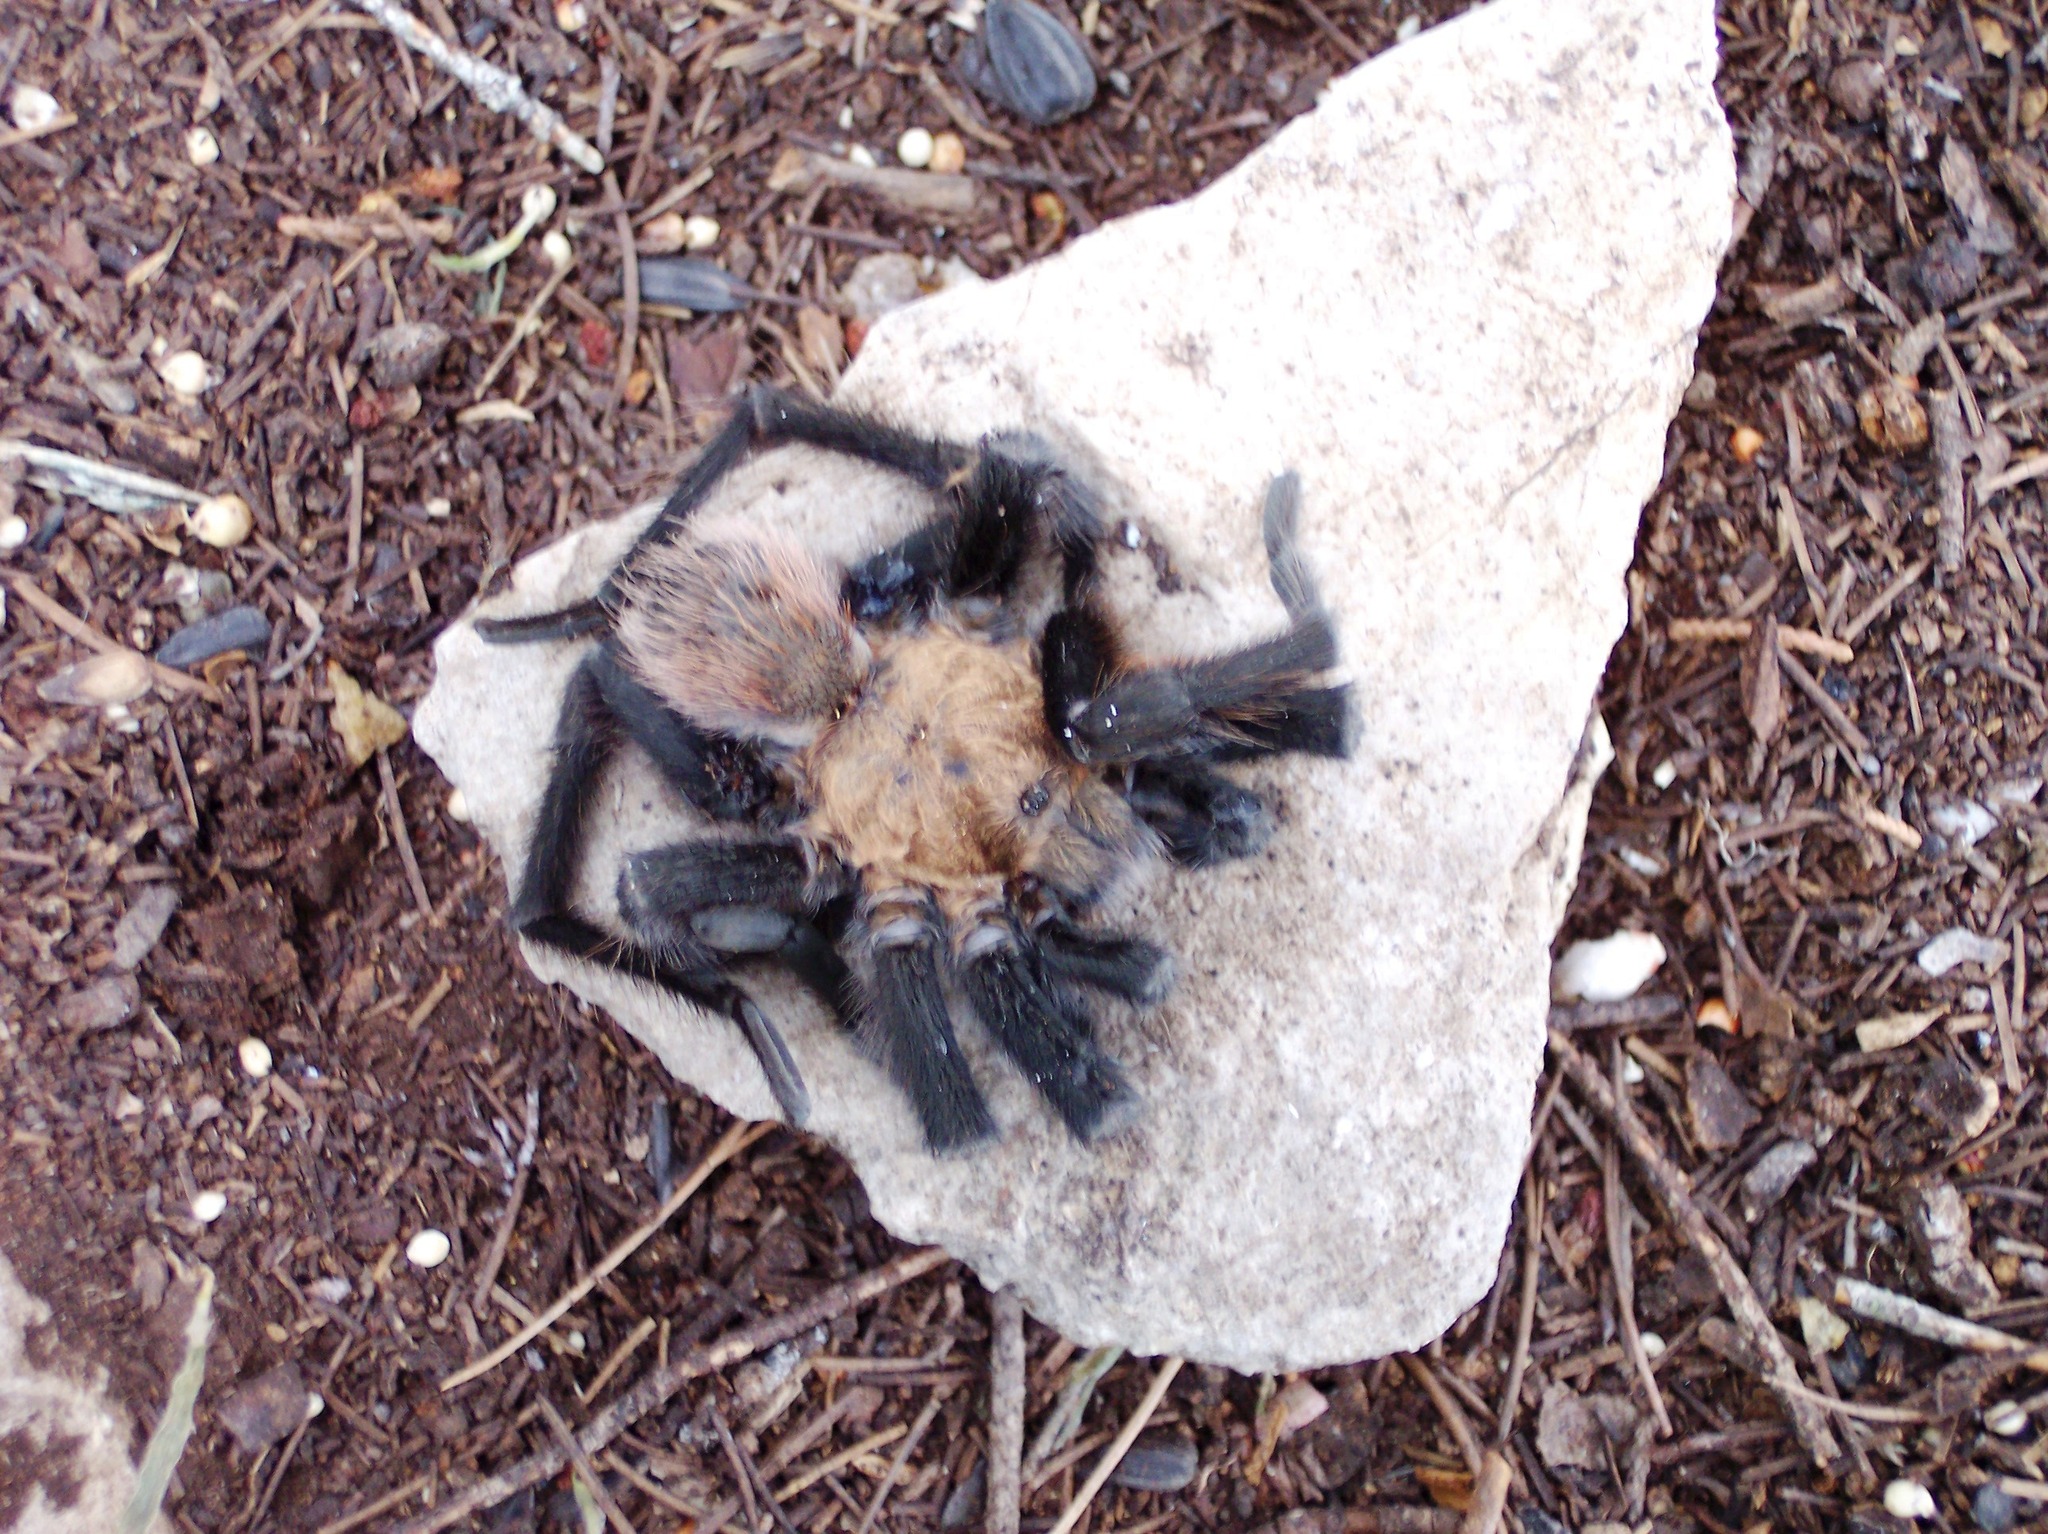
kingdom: Animalia
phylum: Arthropoda
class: Arachnida
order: Araneae
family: Theraphosidae
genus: Aphonopelma
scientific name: Aphonopelma hentzi
